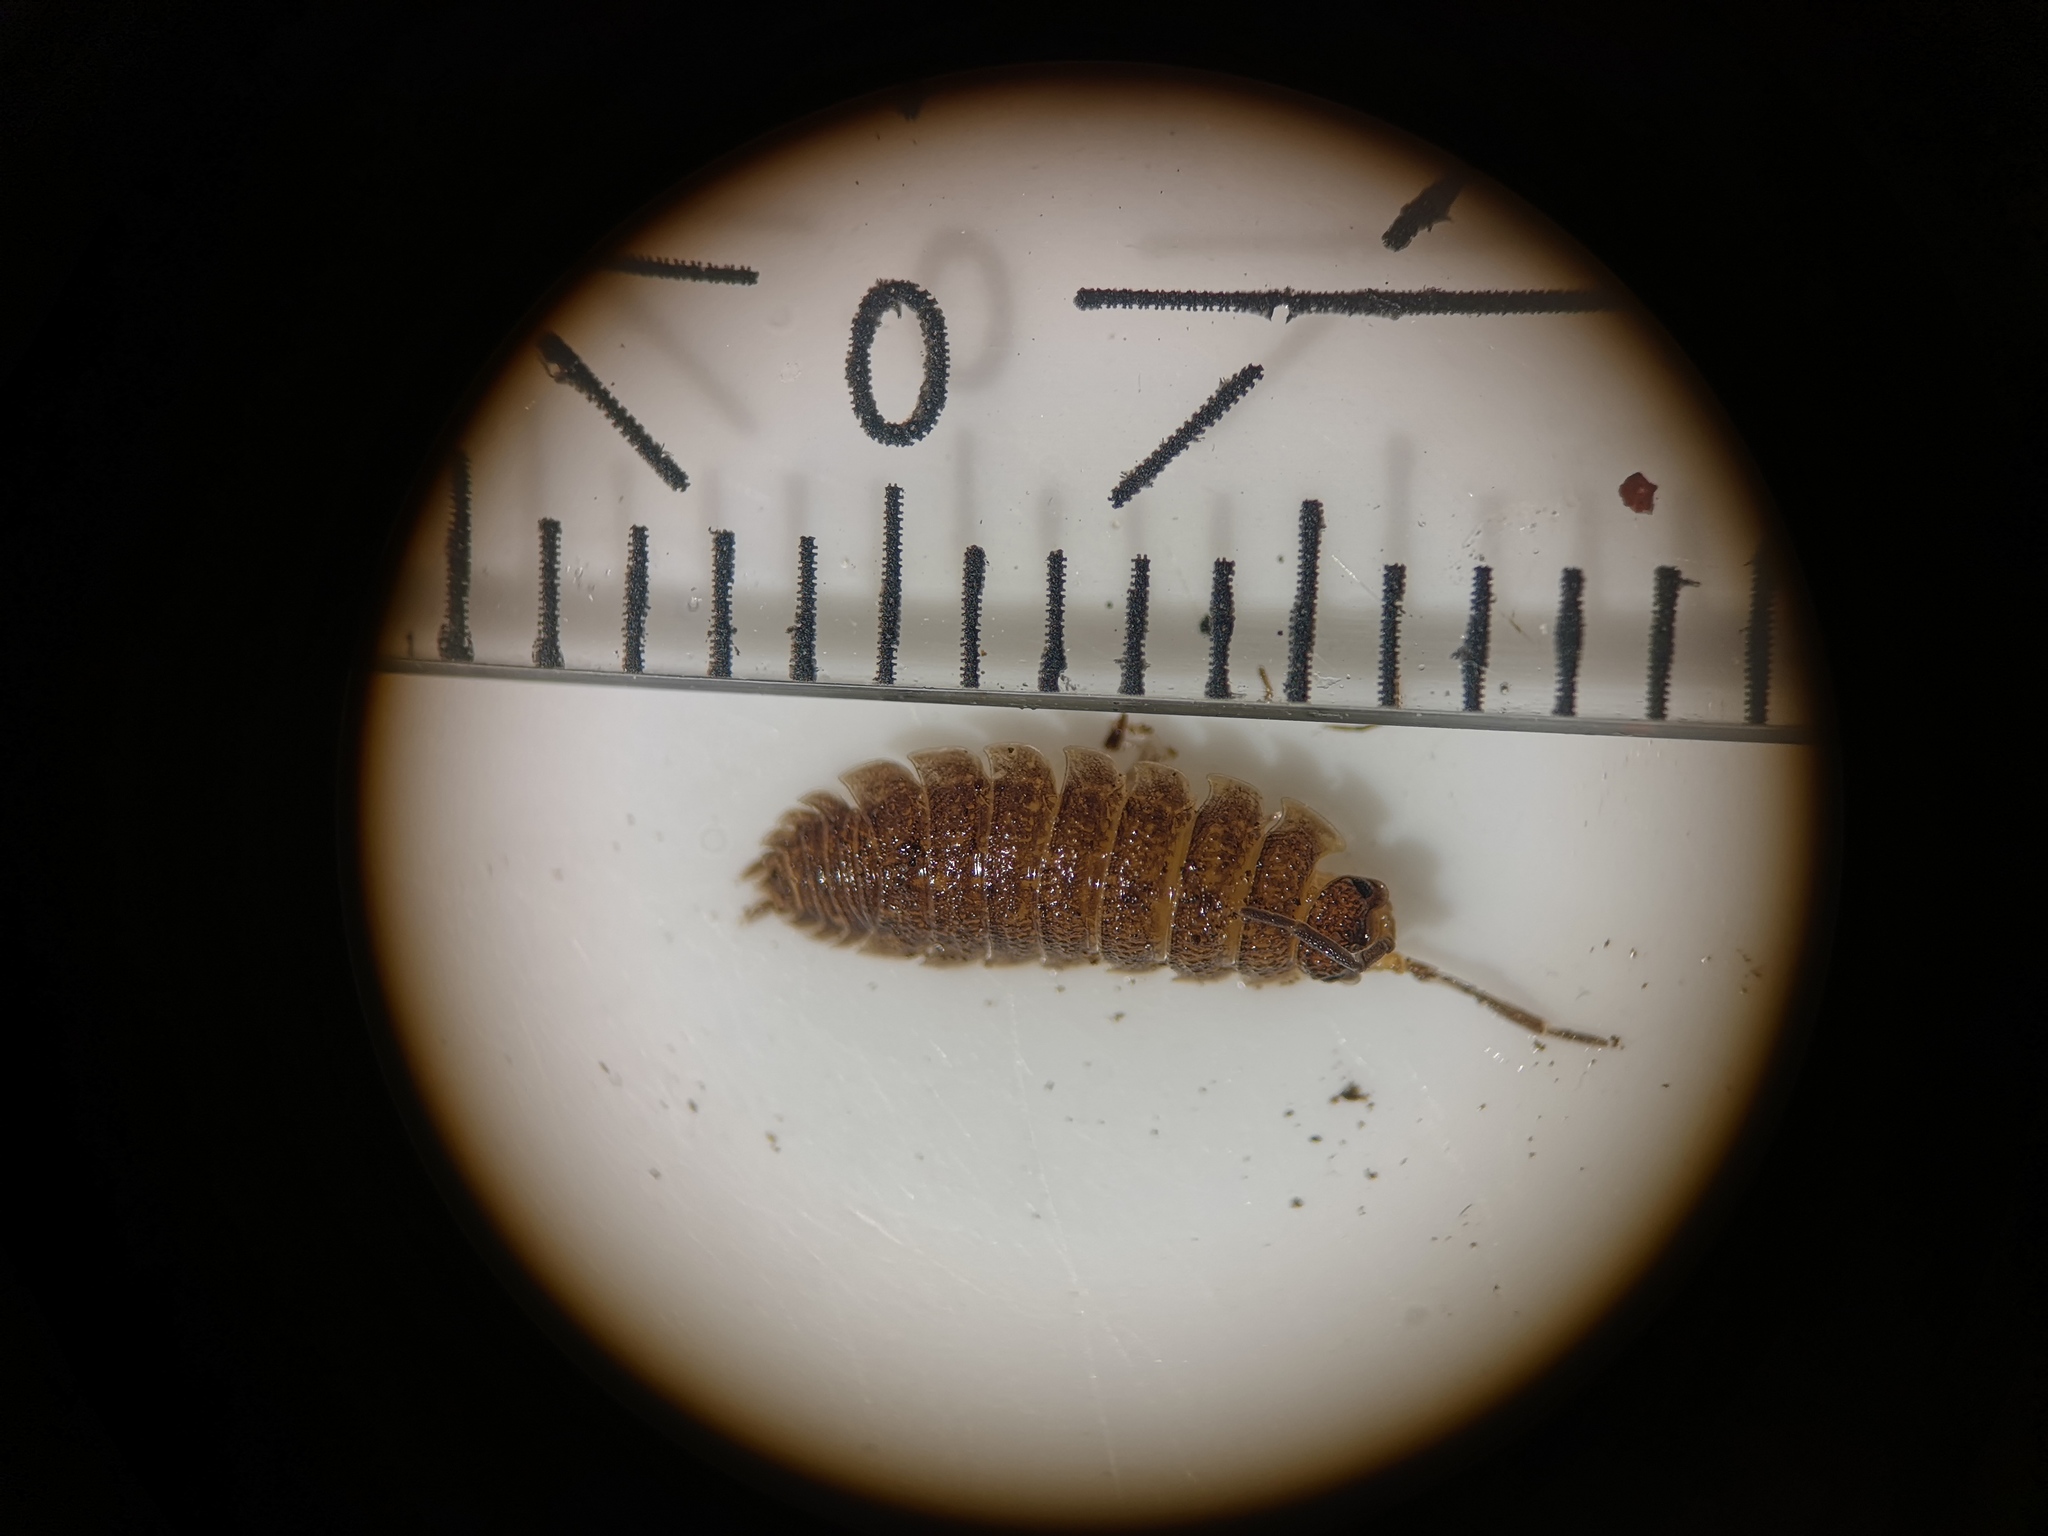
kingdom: Animalia
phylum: Arthropoda
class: Malacostraca
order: Isopoda
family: Porcellionidae
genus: Porcellio
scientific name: Porcellio scaber
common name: Common rough woodlouse
